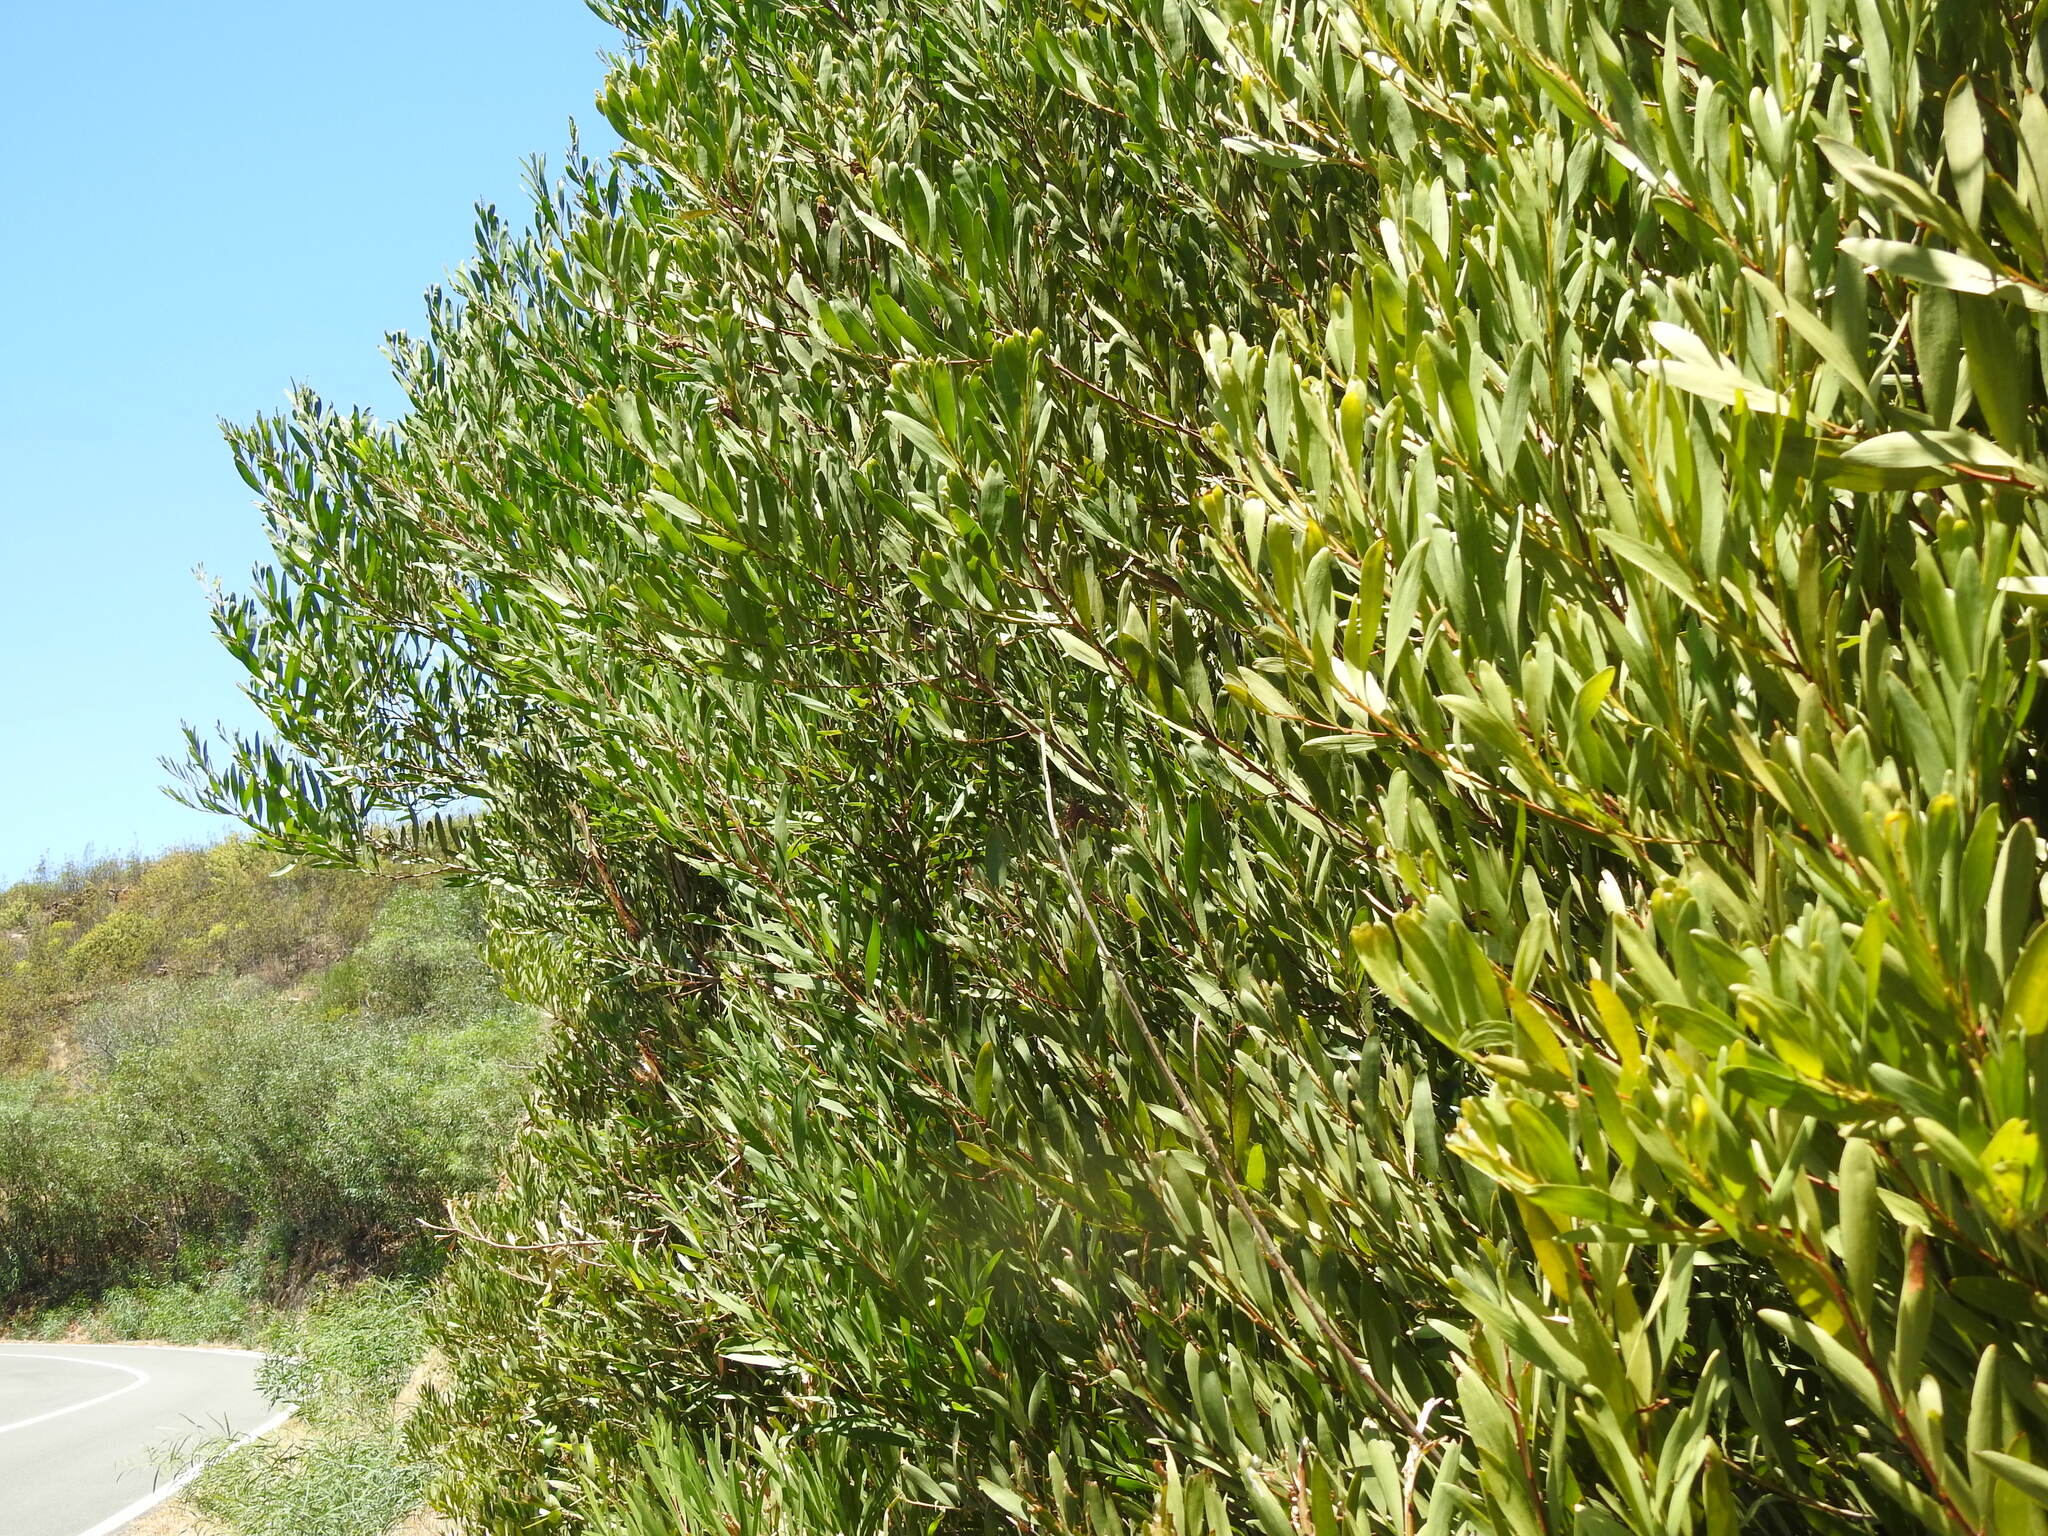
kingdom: Plantae
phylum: Tracheophyta
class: Magnoliopsida
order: Fabales
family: Fabaceae
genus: Acacia
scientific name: Acacia longifolia
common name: Sydney golden wattle
